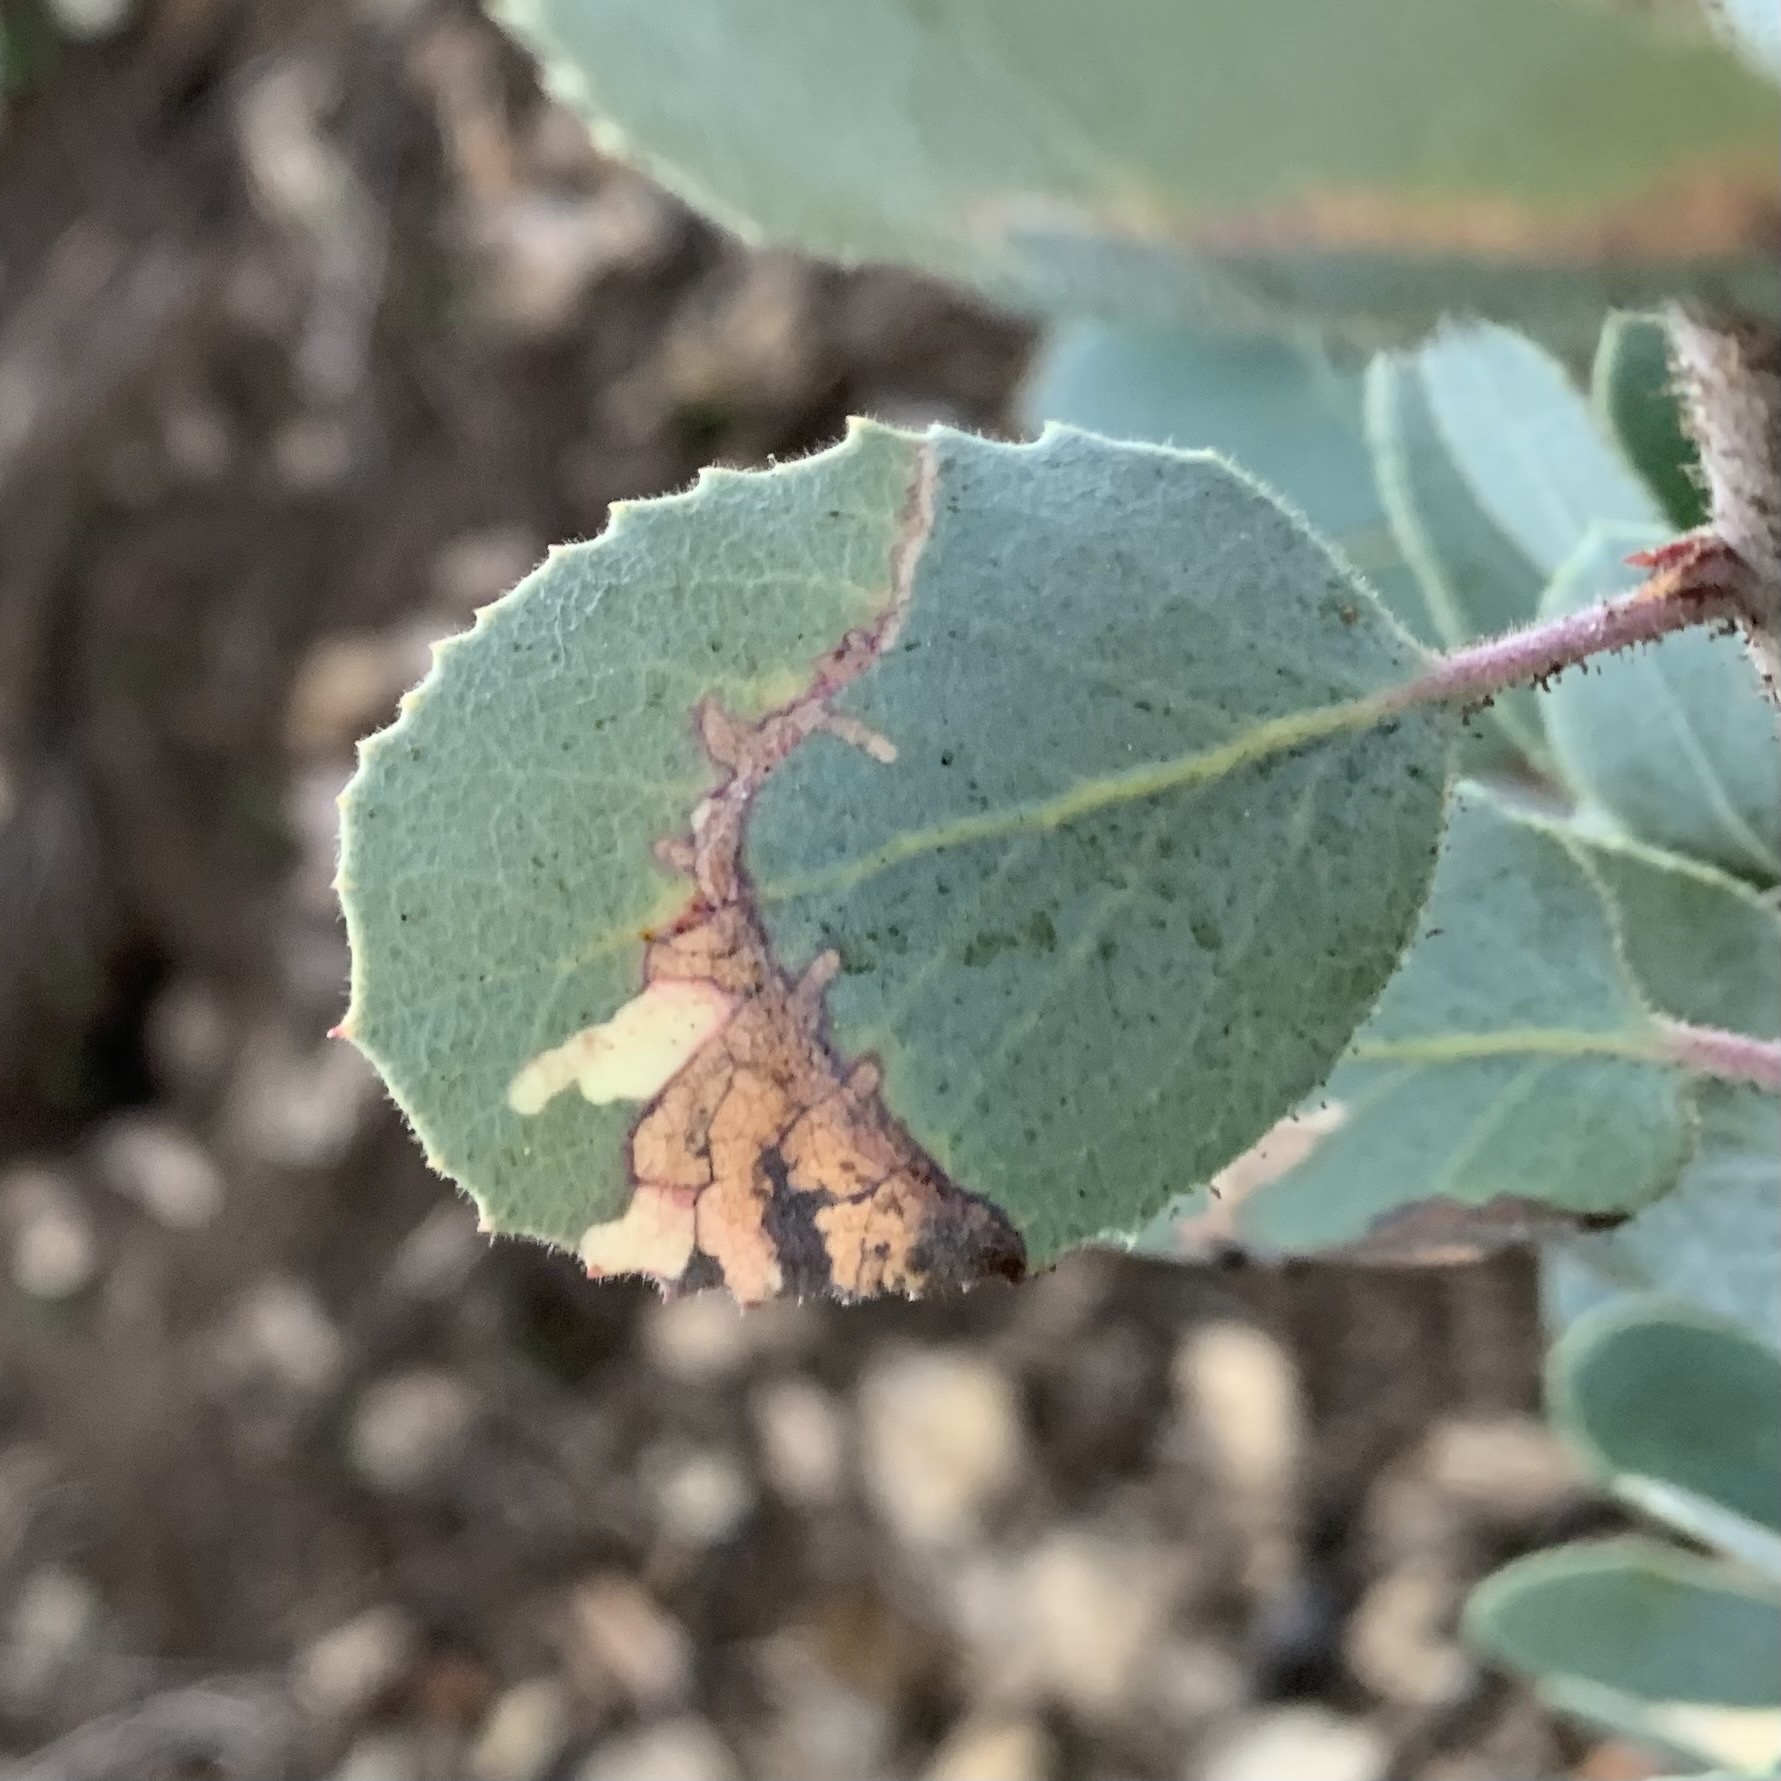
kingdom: Animalia
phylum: Arthropoda
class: Insecta
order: Lepidoptera
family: Tortricidae
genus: Epinotia
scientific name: Epinotia nigralbana
